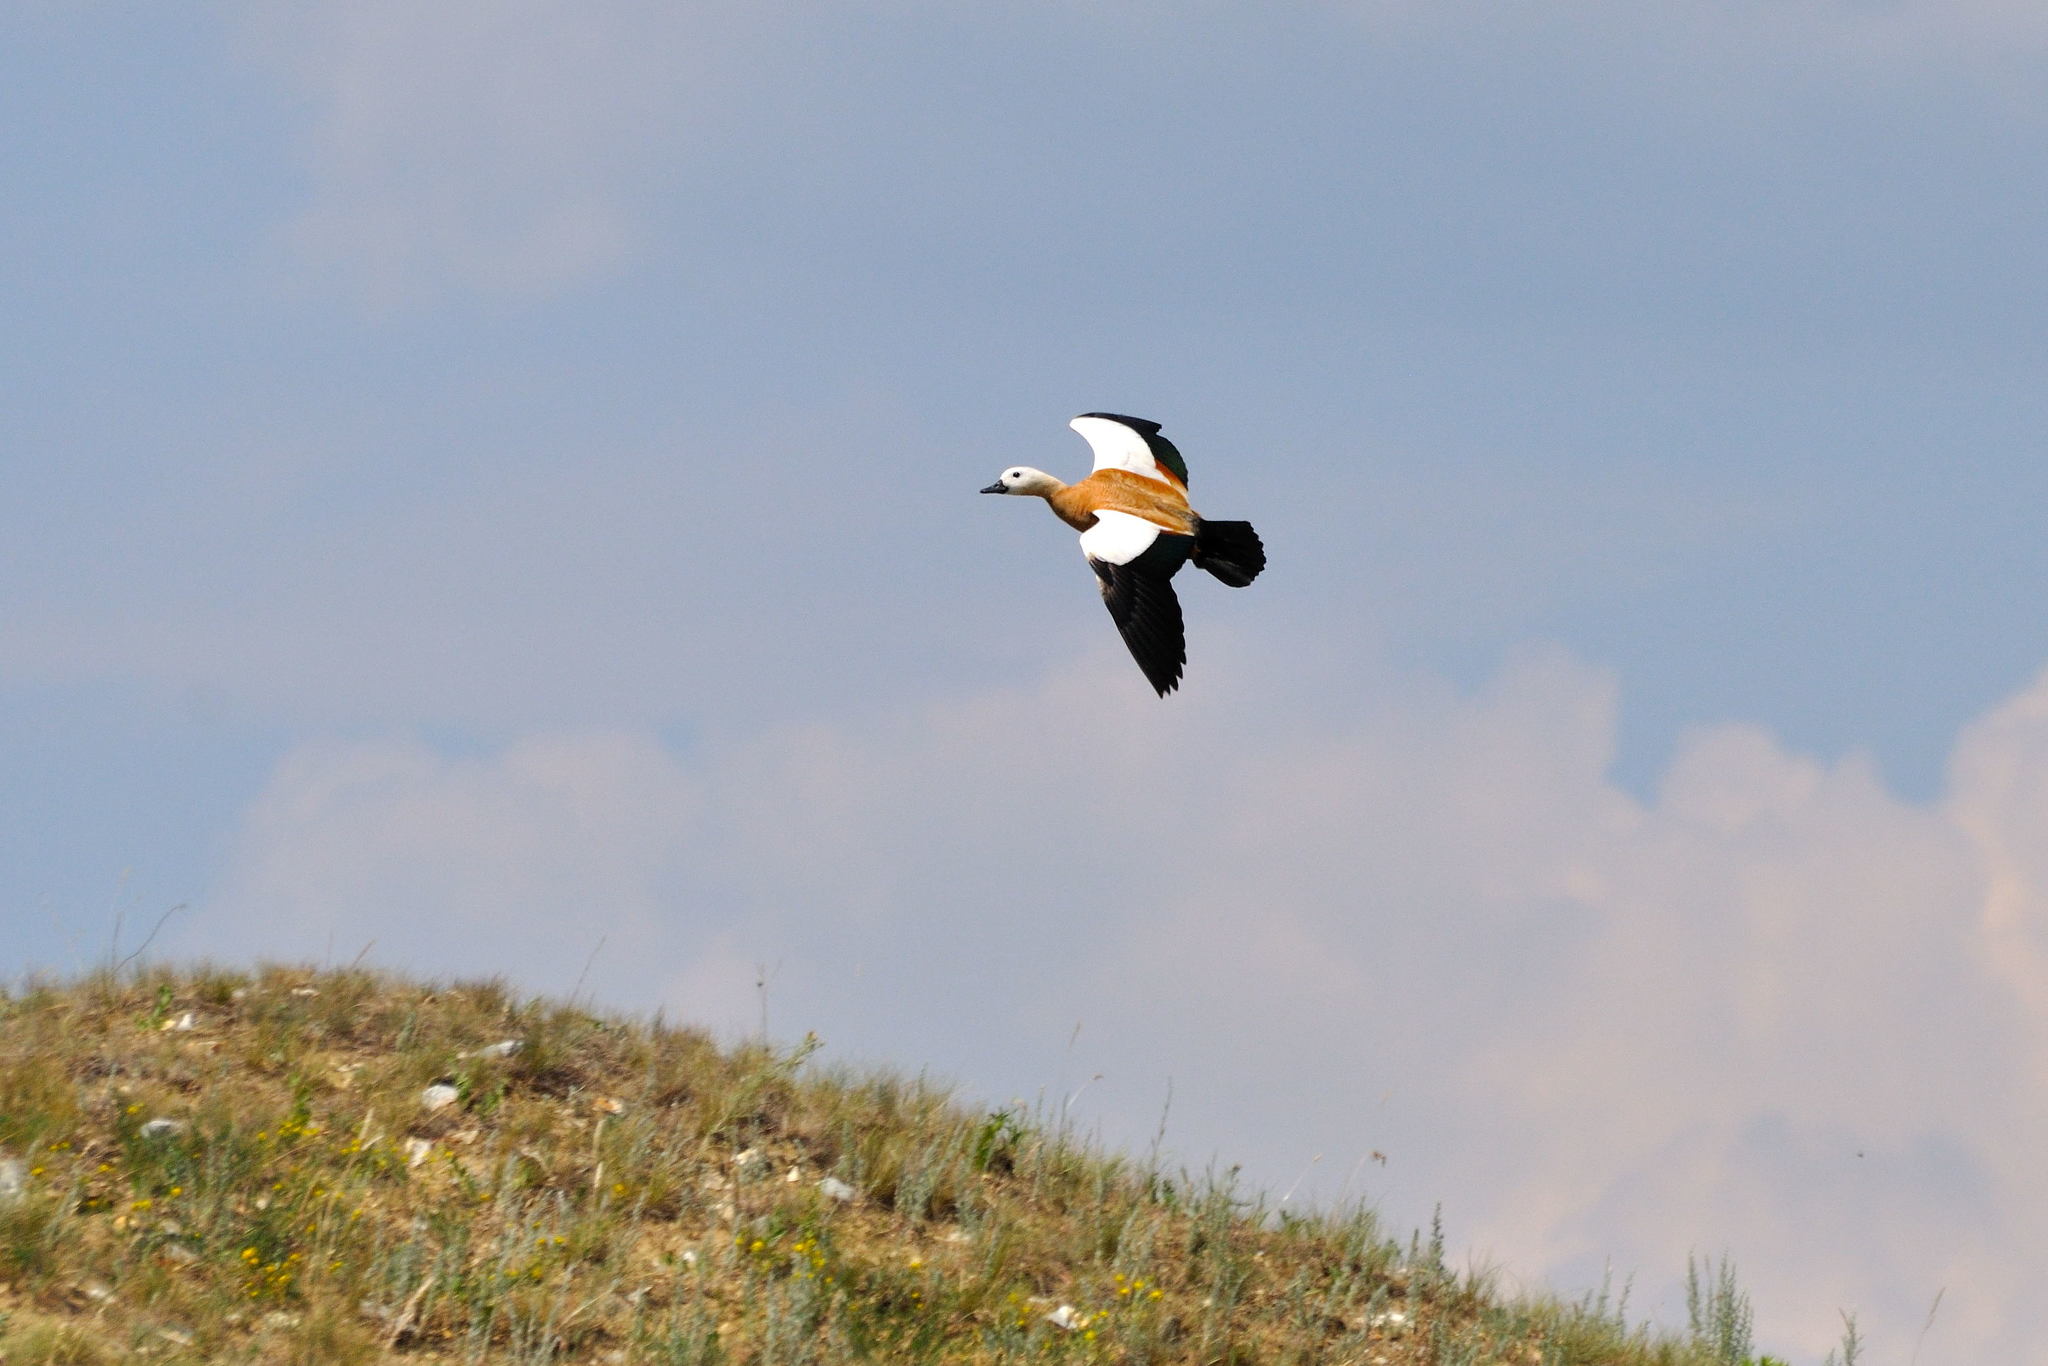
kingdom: Animalia
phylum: Chordata
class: Aves
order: Anseriformes
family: Anatidae
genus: Tadorna
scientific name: Tadorna ferruginea
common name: Ruddy shelduck
